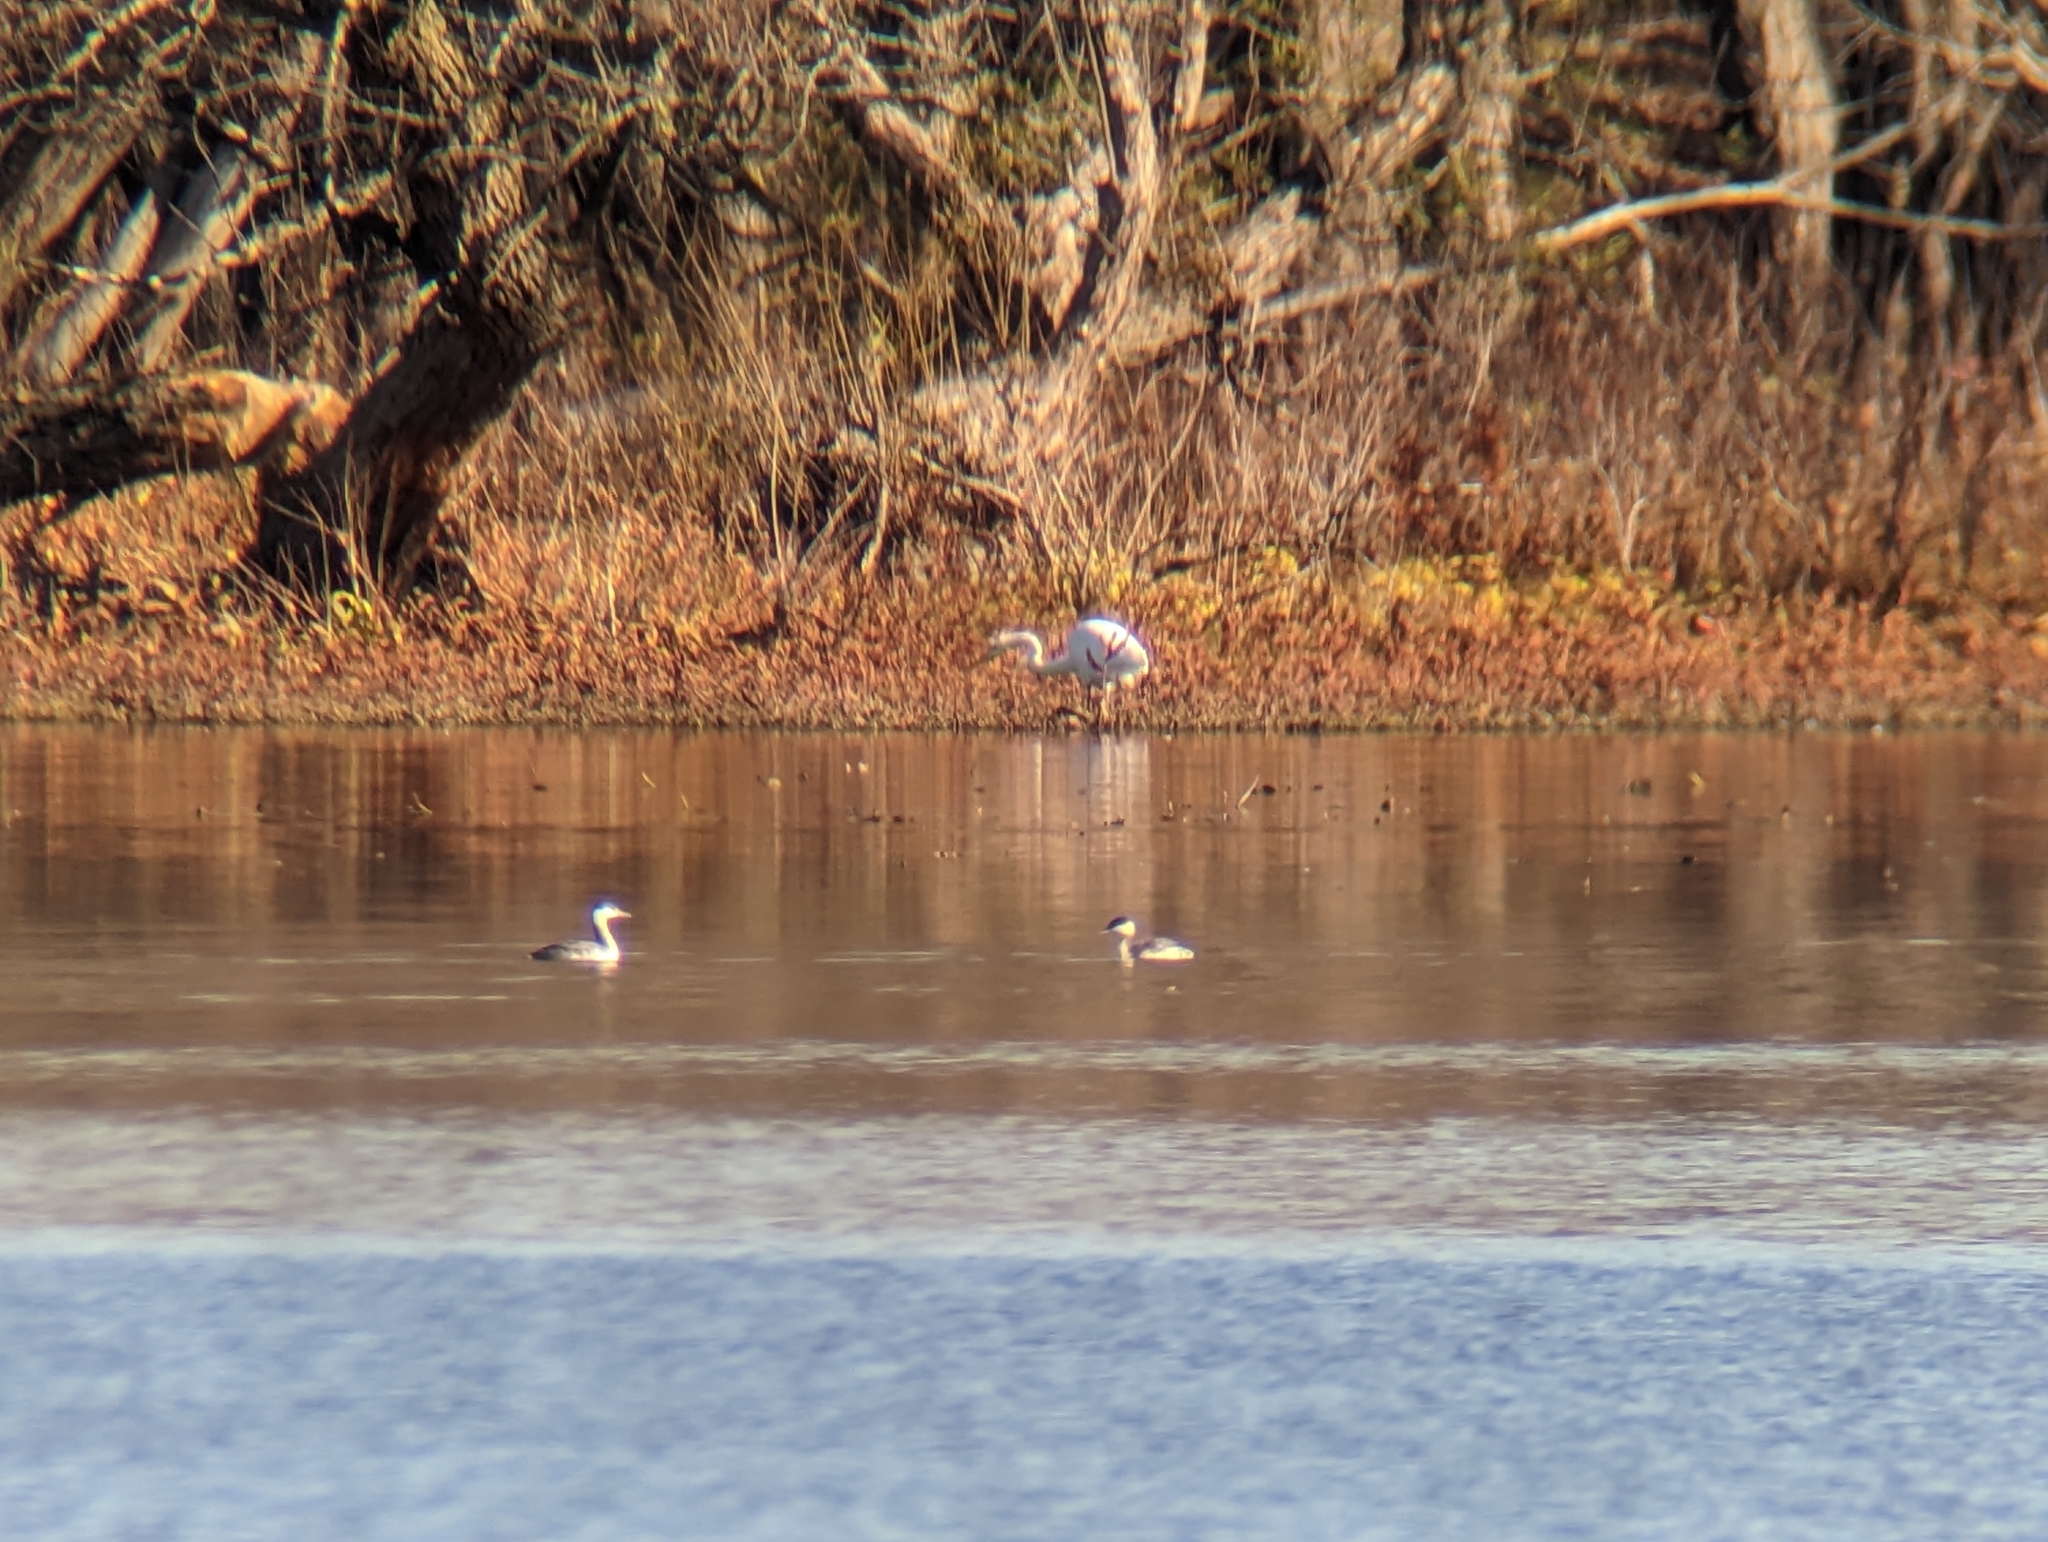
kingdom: Animalia
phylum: Chordata
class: Aves
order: Podicipediformes
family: Podicipedidae
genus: Podiceps
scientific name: Podiceps auritus
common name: Horned grebe
